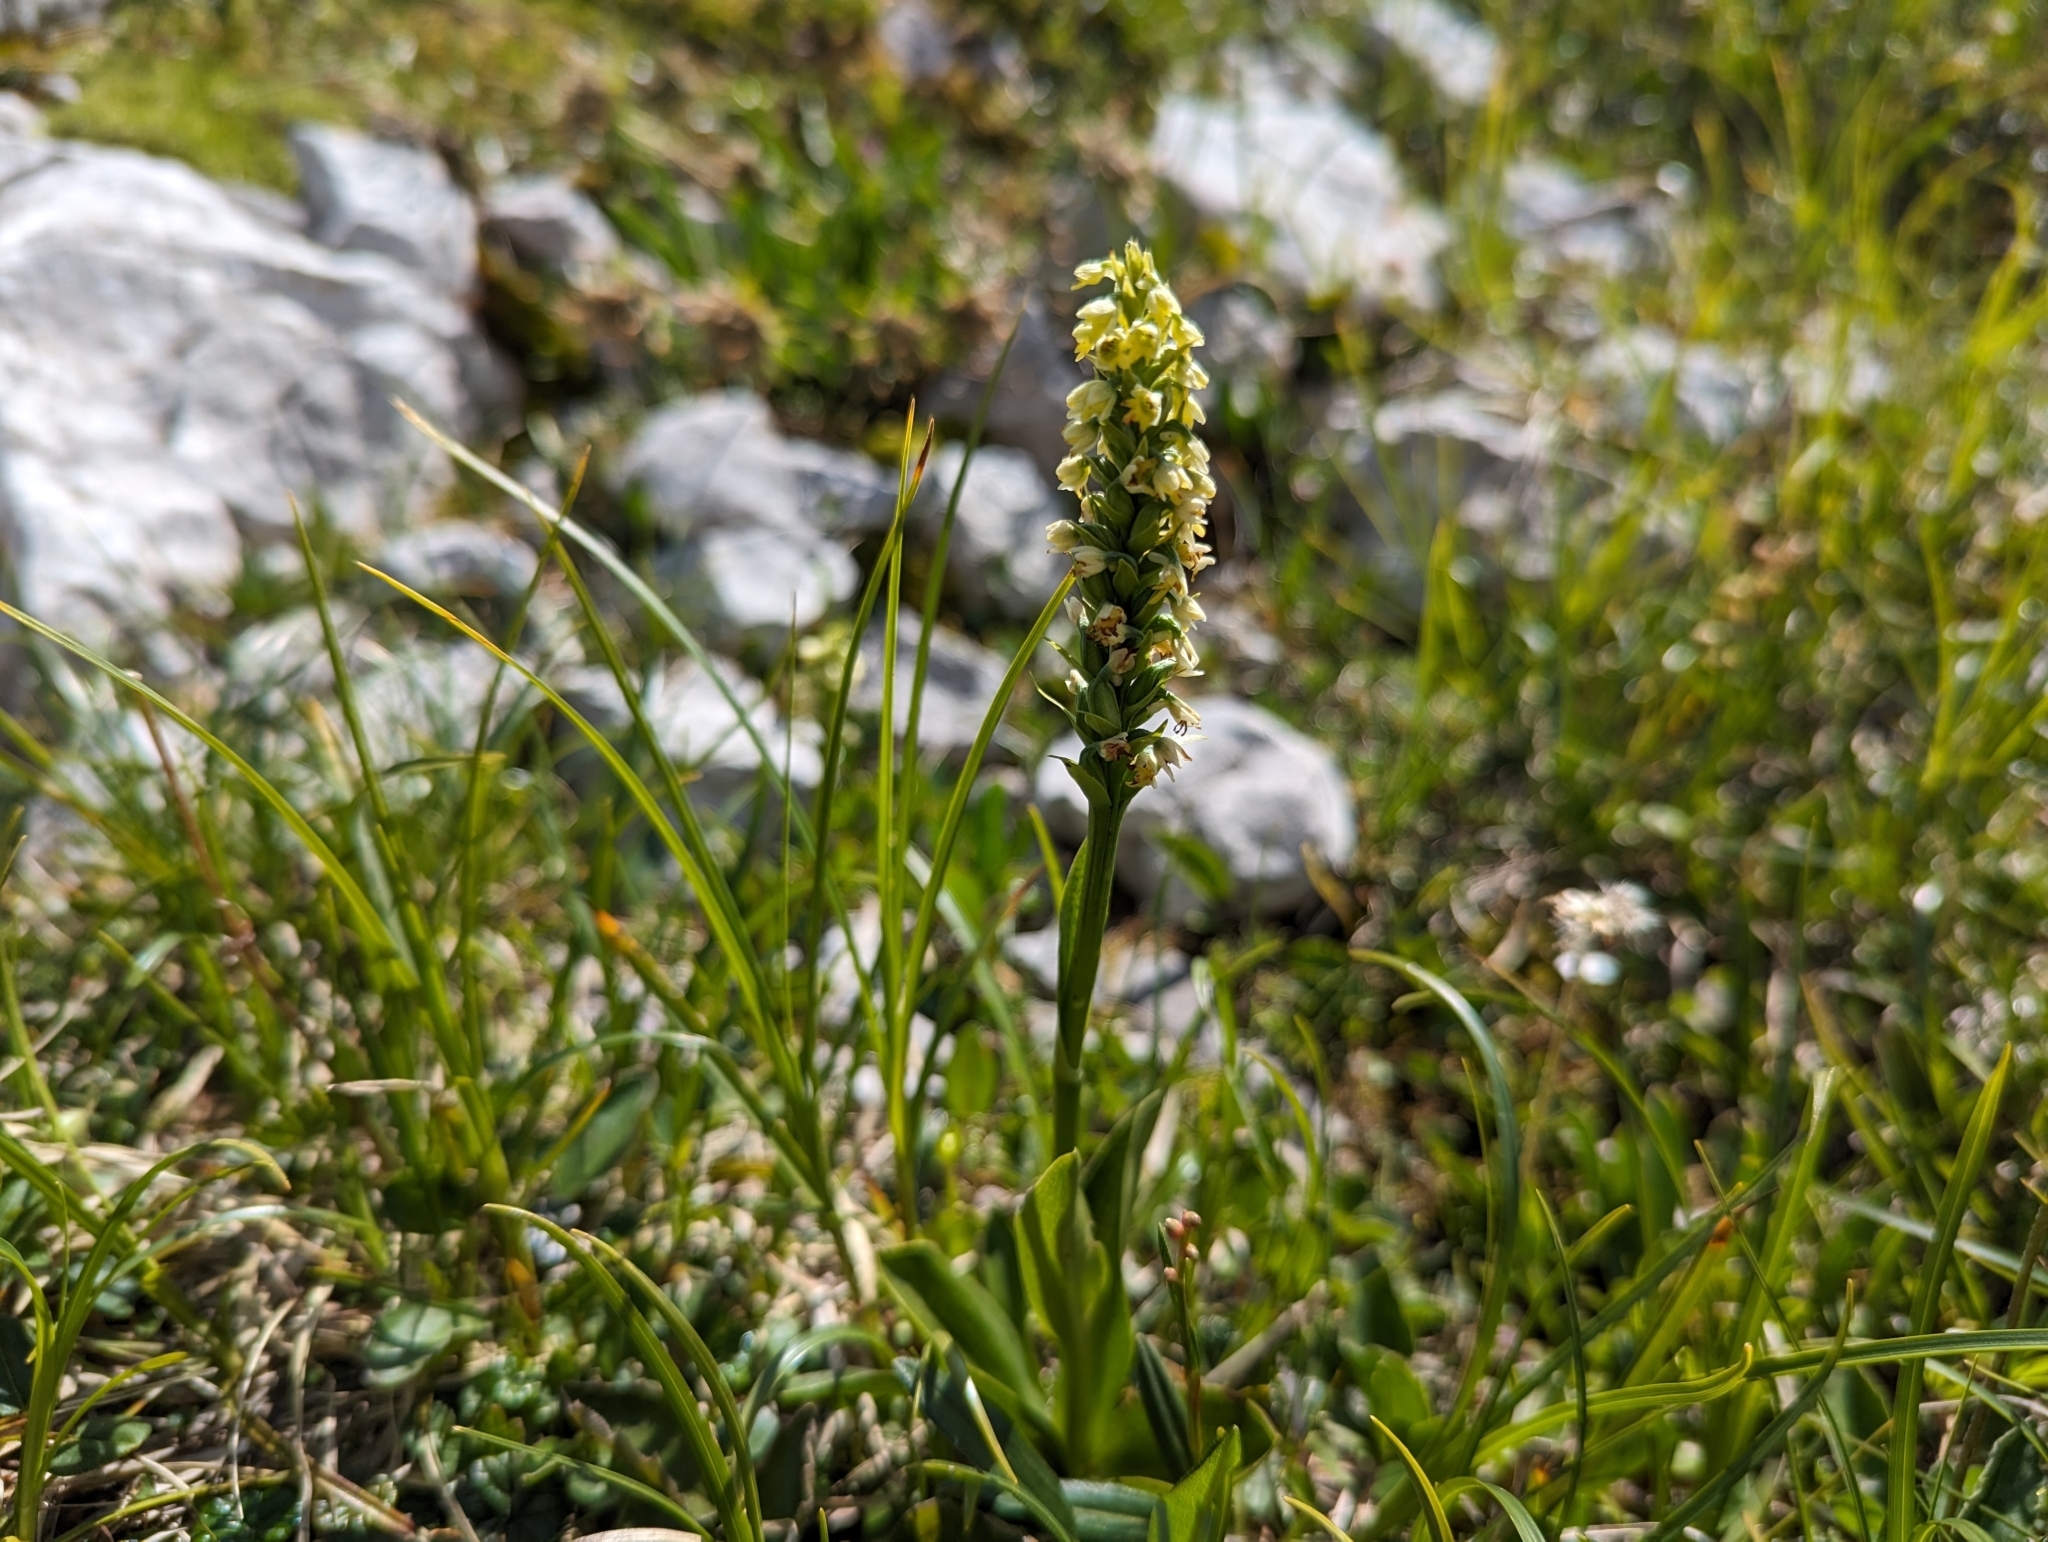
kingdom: Plantae
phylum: Tracheophyta
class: Liliopsida
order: Asparagales
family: Orchidaceae
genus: Pseudorchis
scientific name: Pseudorchis albida
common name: Small-white orchid
